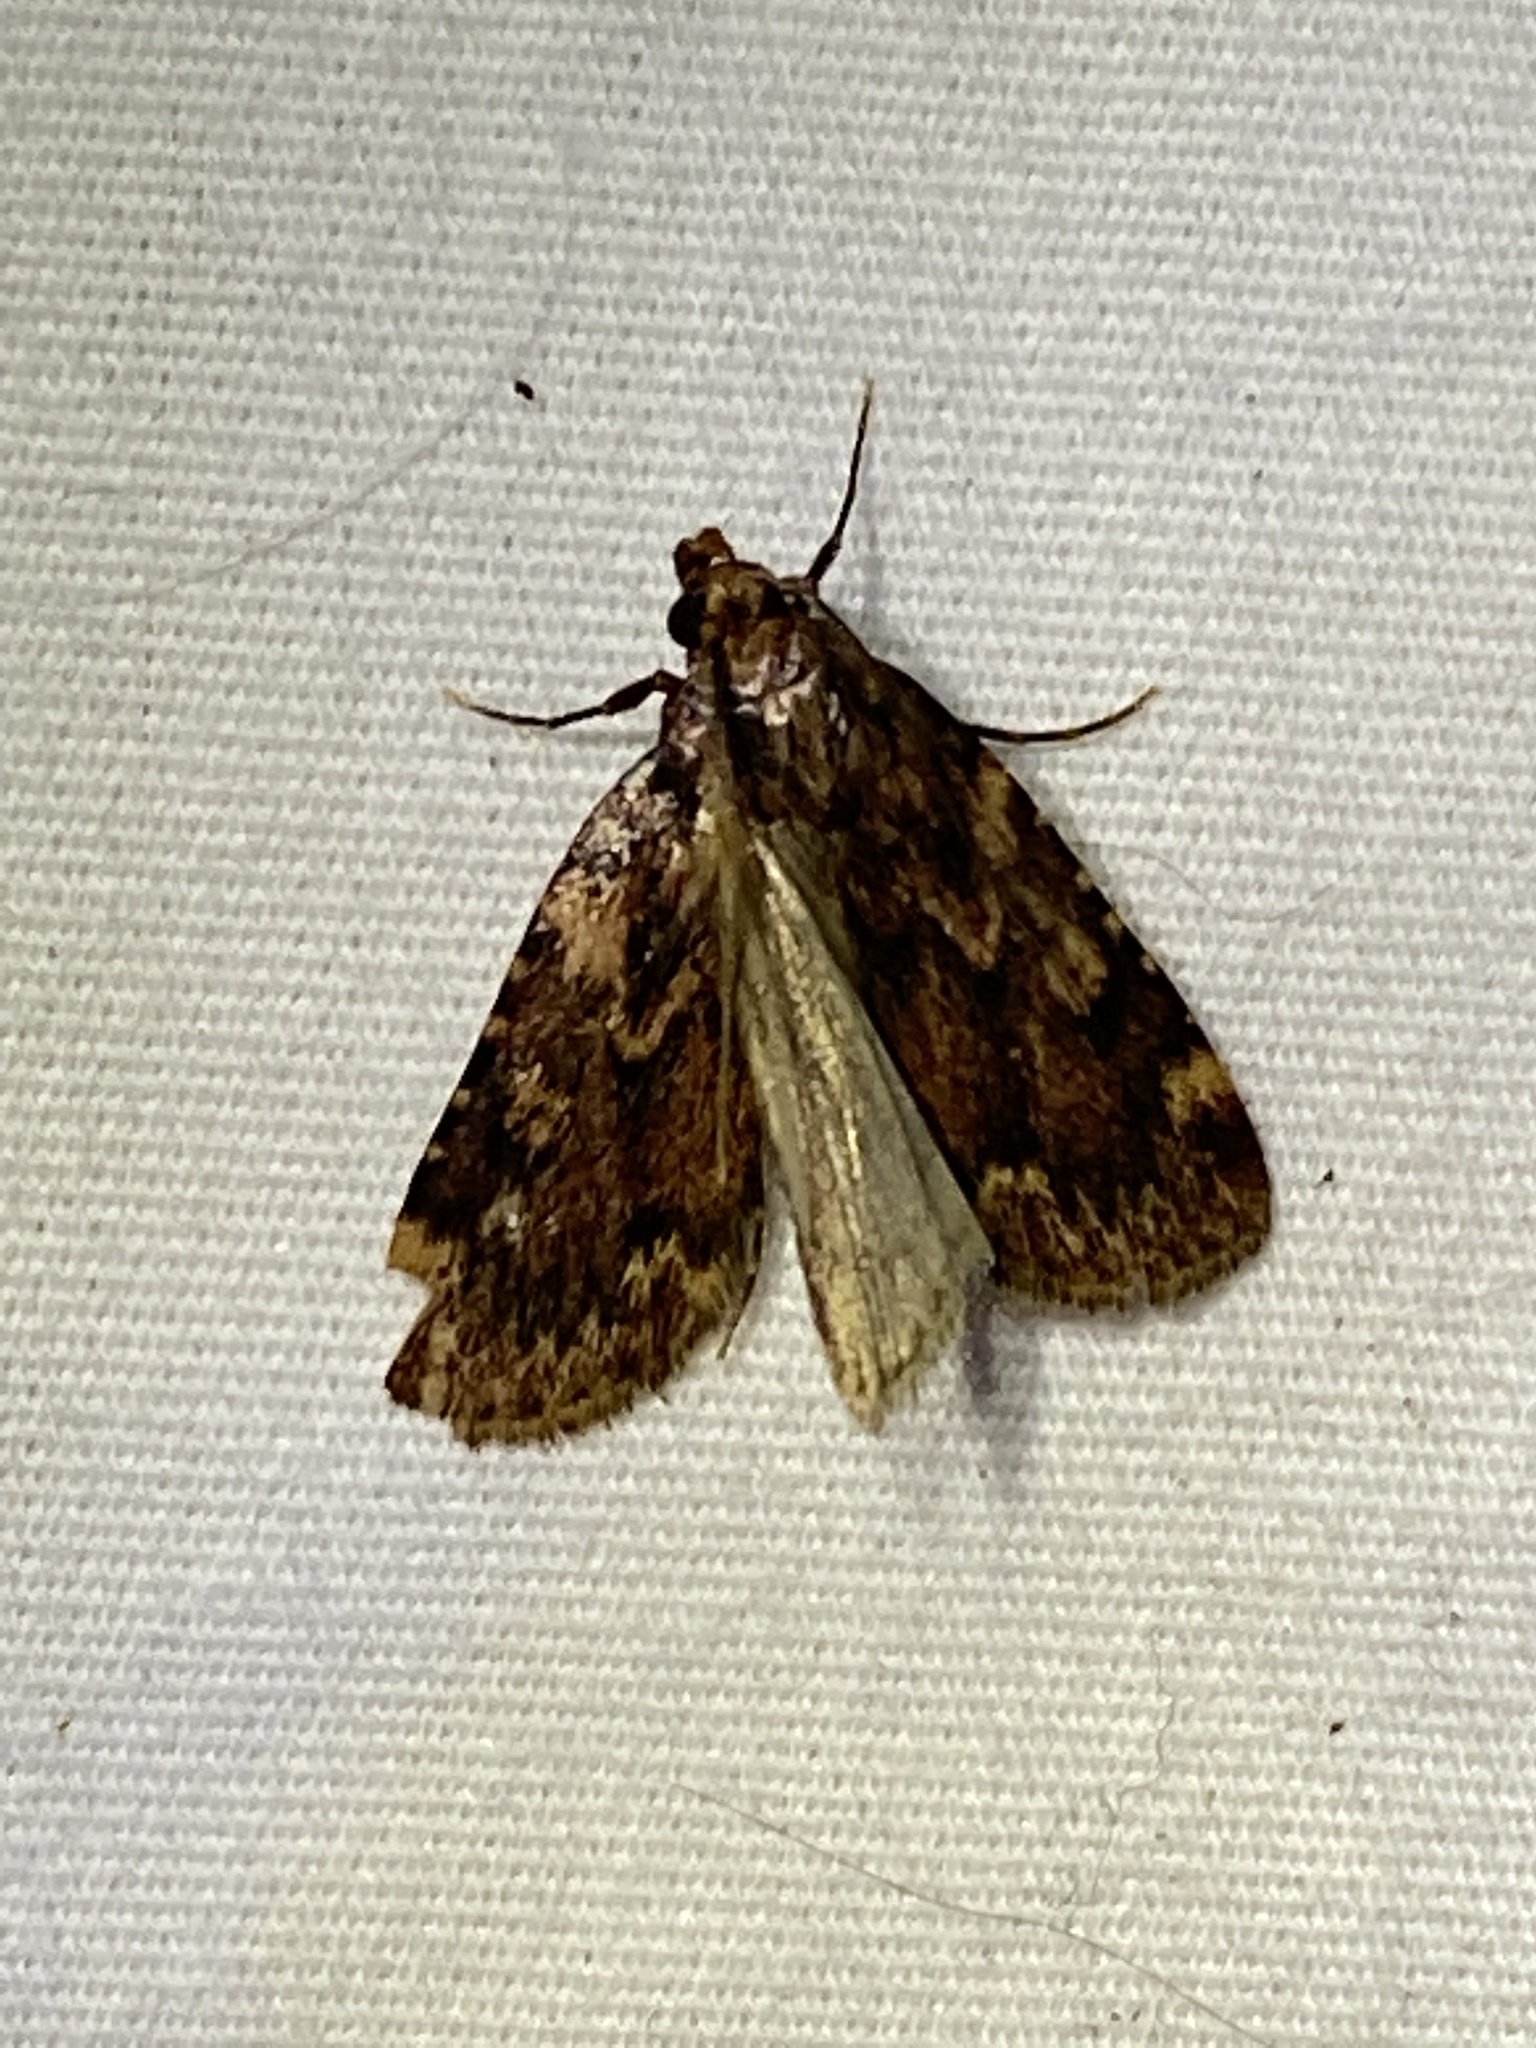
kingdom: Animalia
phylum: Arthropoda
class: Insecta
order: Lepidoptera
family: Pyralidae
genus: Aglossa
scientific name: Aglossa cuprina
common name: Grease moth
